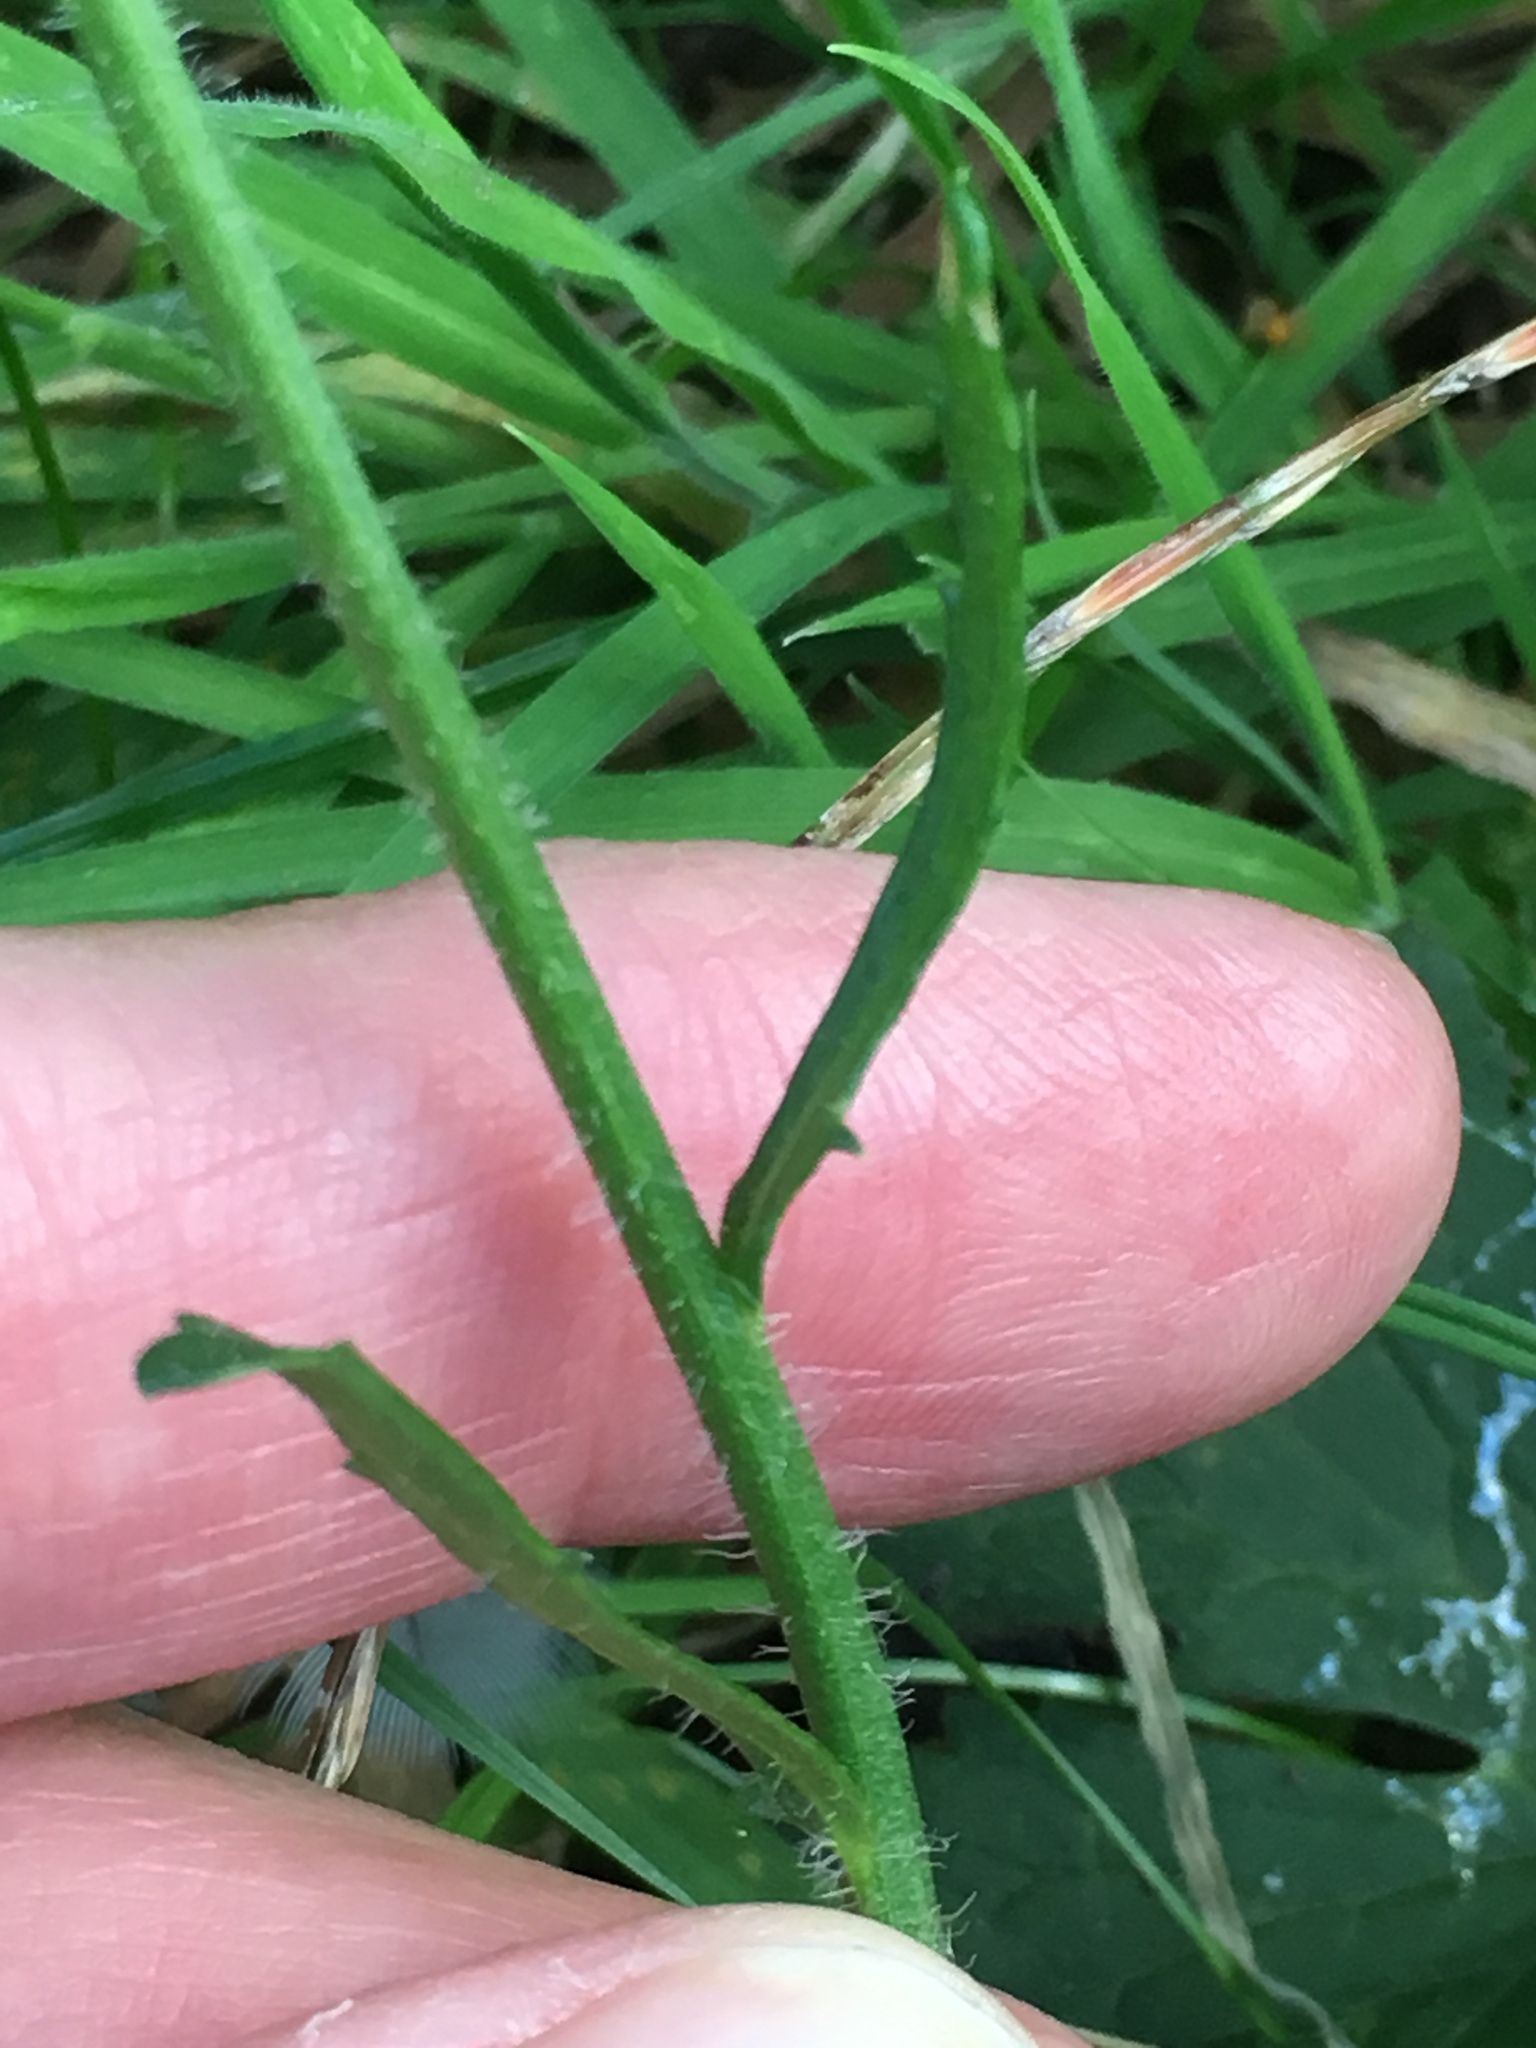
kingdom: Plantae
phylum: Tracheophyta
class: Magnoliopsida
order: Asterales
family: Asteraceae
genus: Leucanthemum
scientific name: Leucanthemum vulgare
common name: Oxeye daisy
